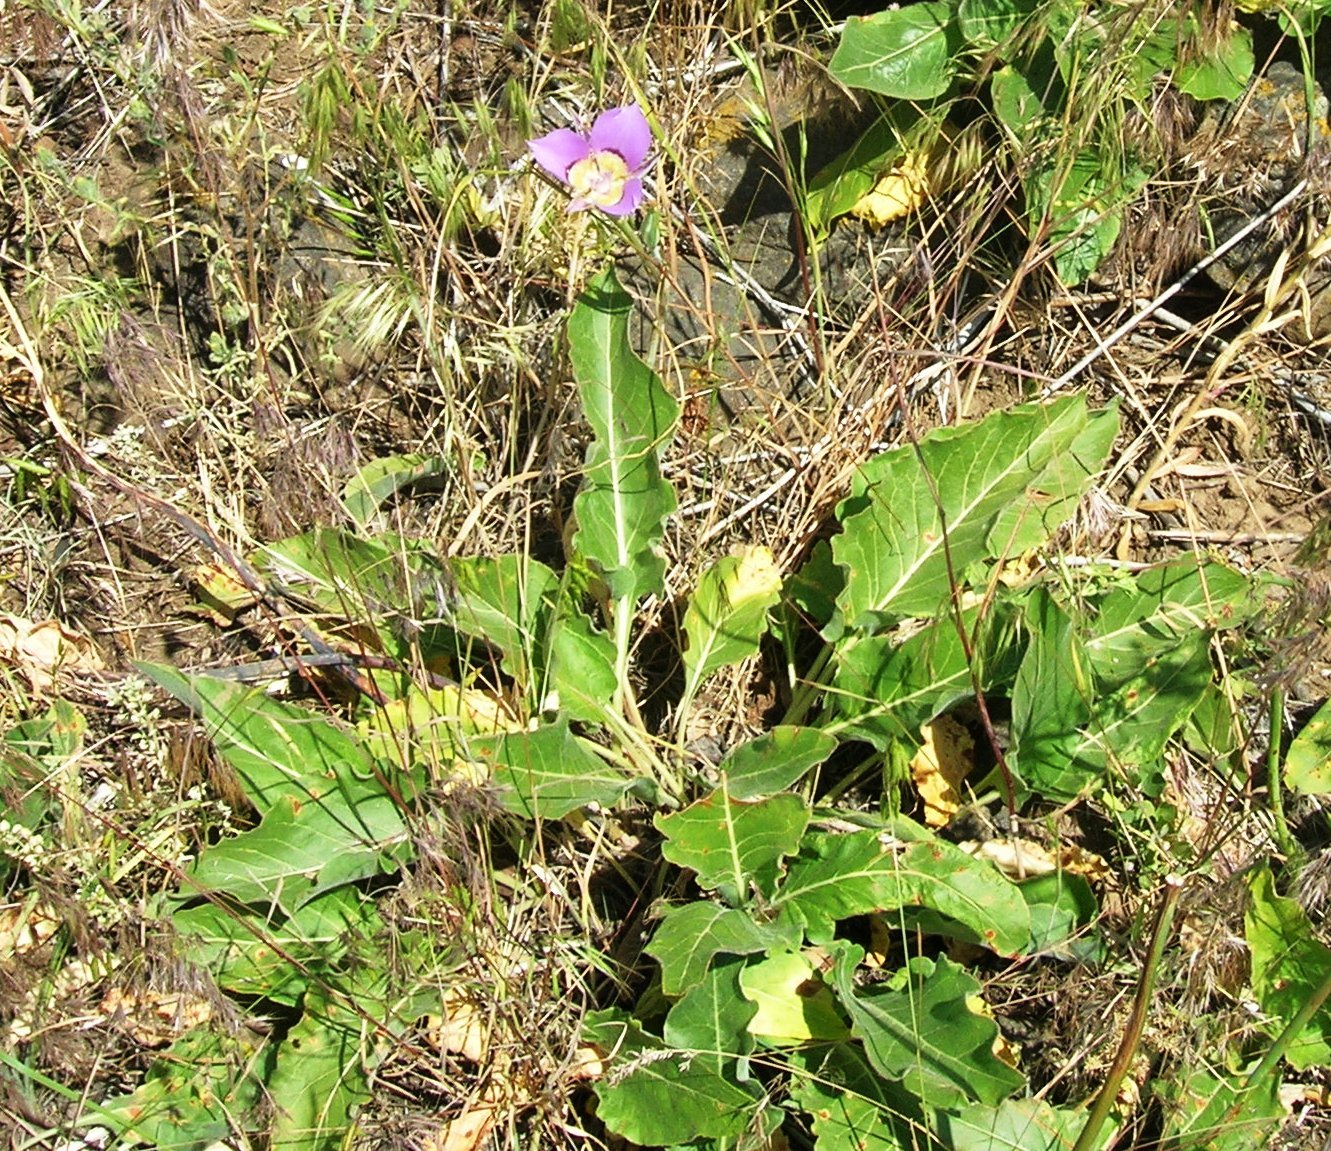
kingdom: Plantae
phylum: Tracheophyta
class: Liliopsida
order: Liliales
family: Liliaceae
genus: Calochortus
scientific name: Calochortus macrocarpus
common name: Green-band mariposa lily
